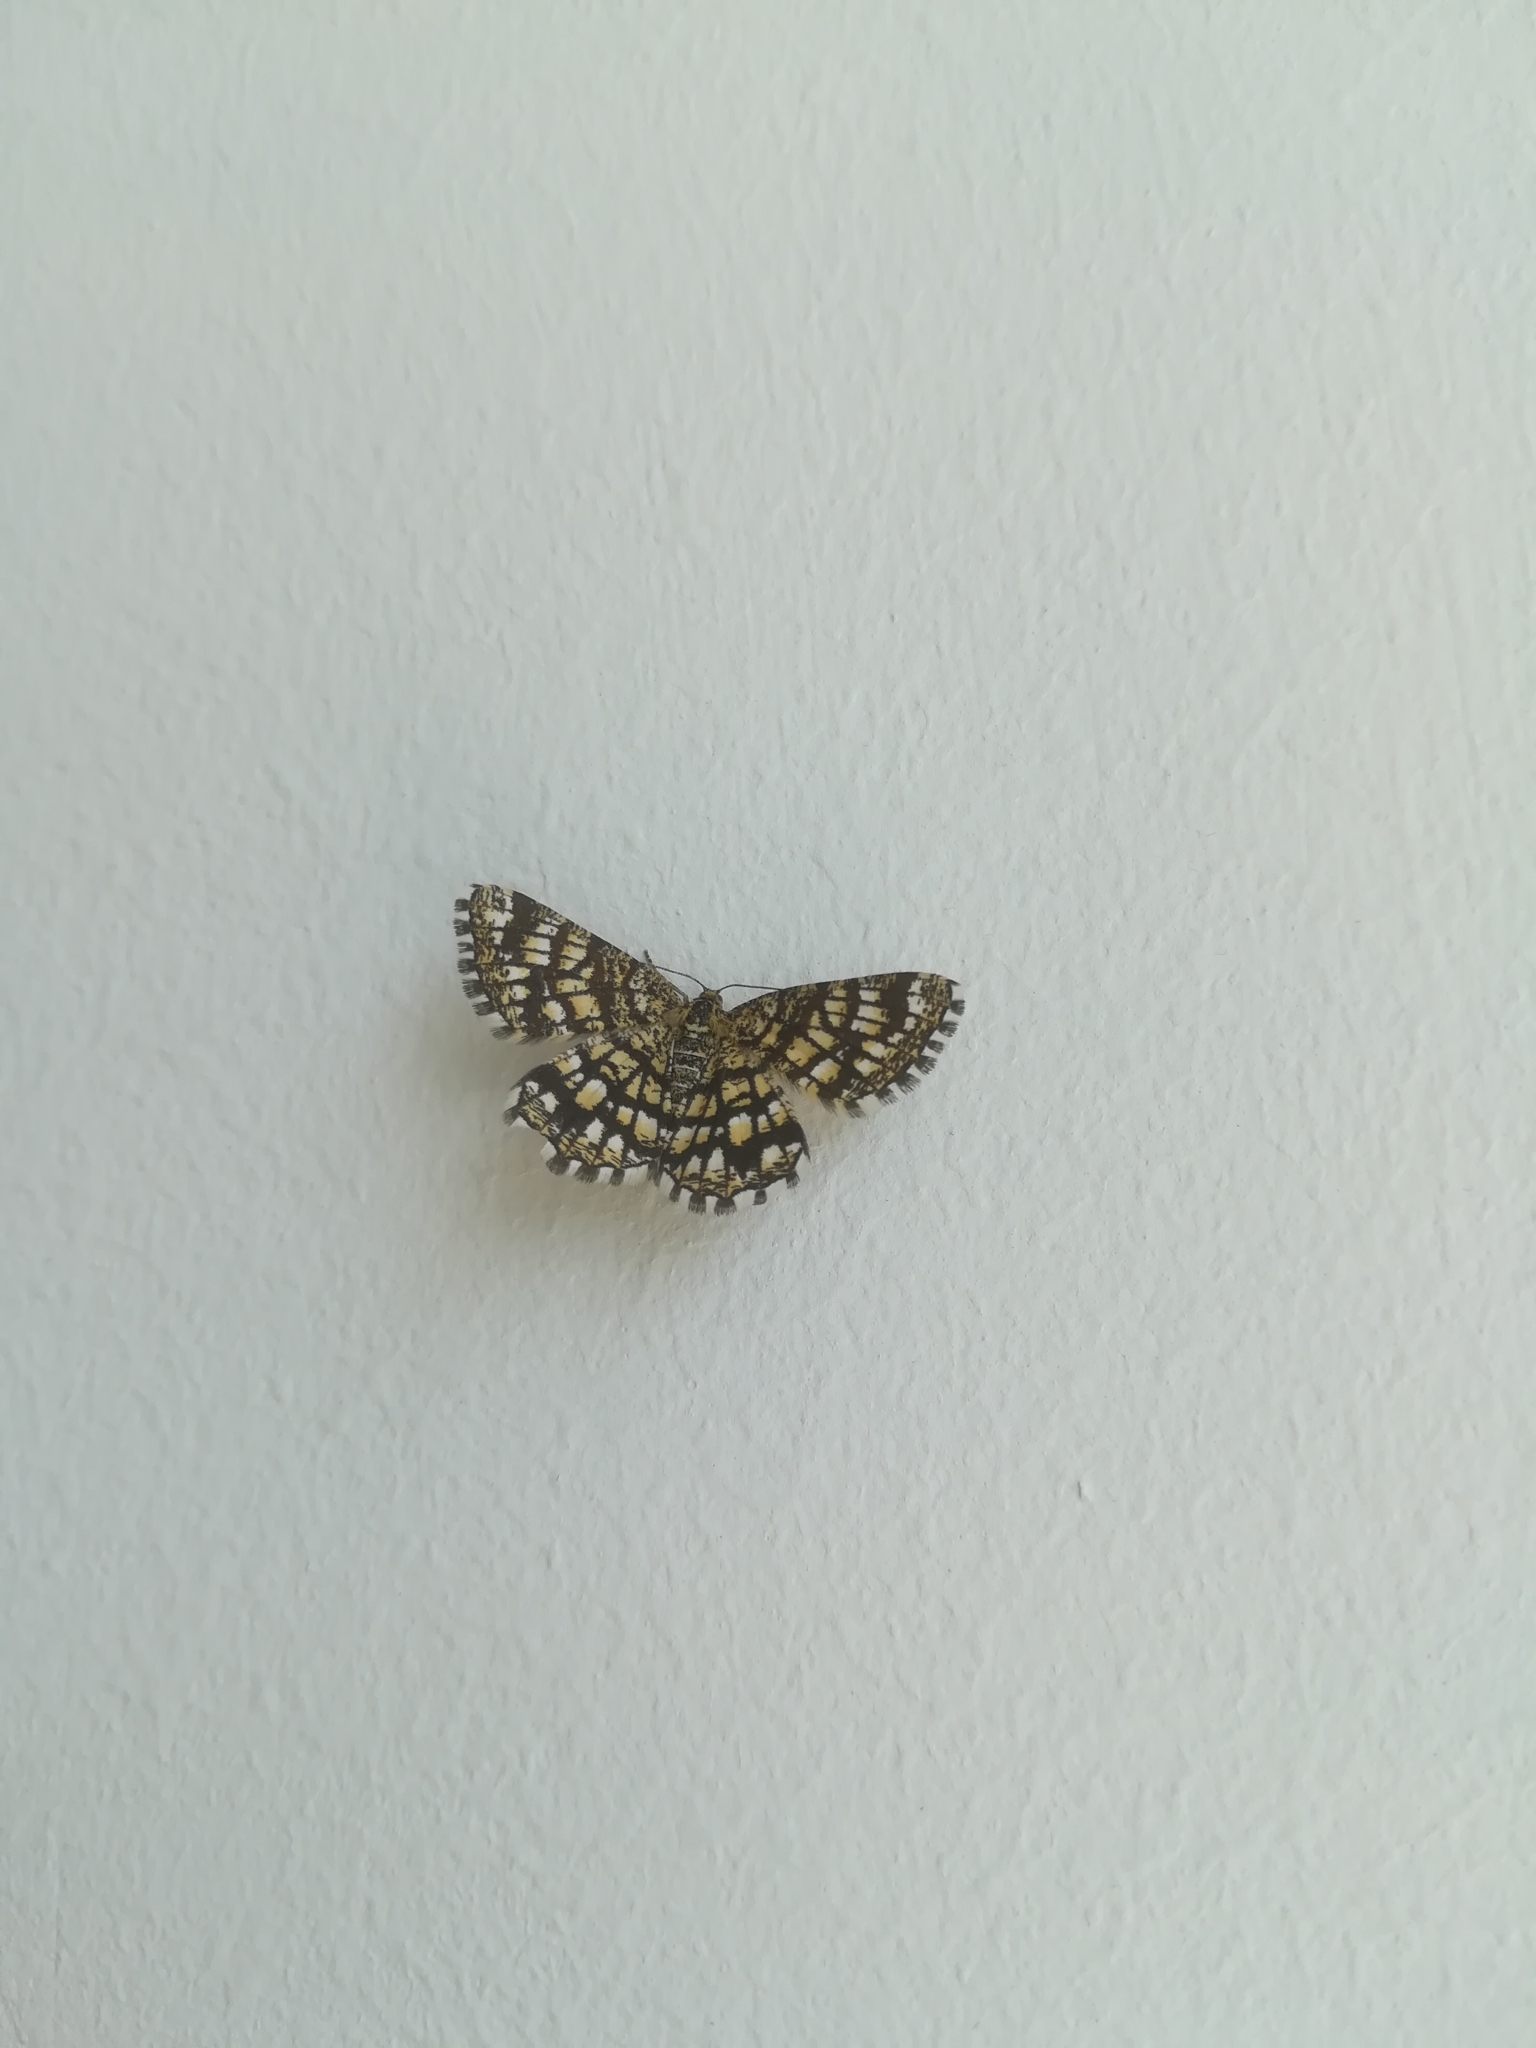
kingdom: Animalia
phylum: Arthropoda
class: Insecta
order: Lepidoptera
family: Geometridae
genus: Chiasmia
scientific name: Chiasmia clathrata
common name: Latticed heath
